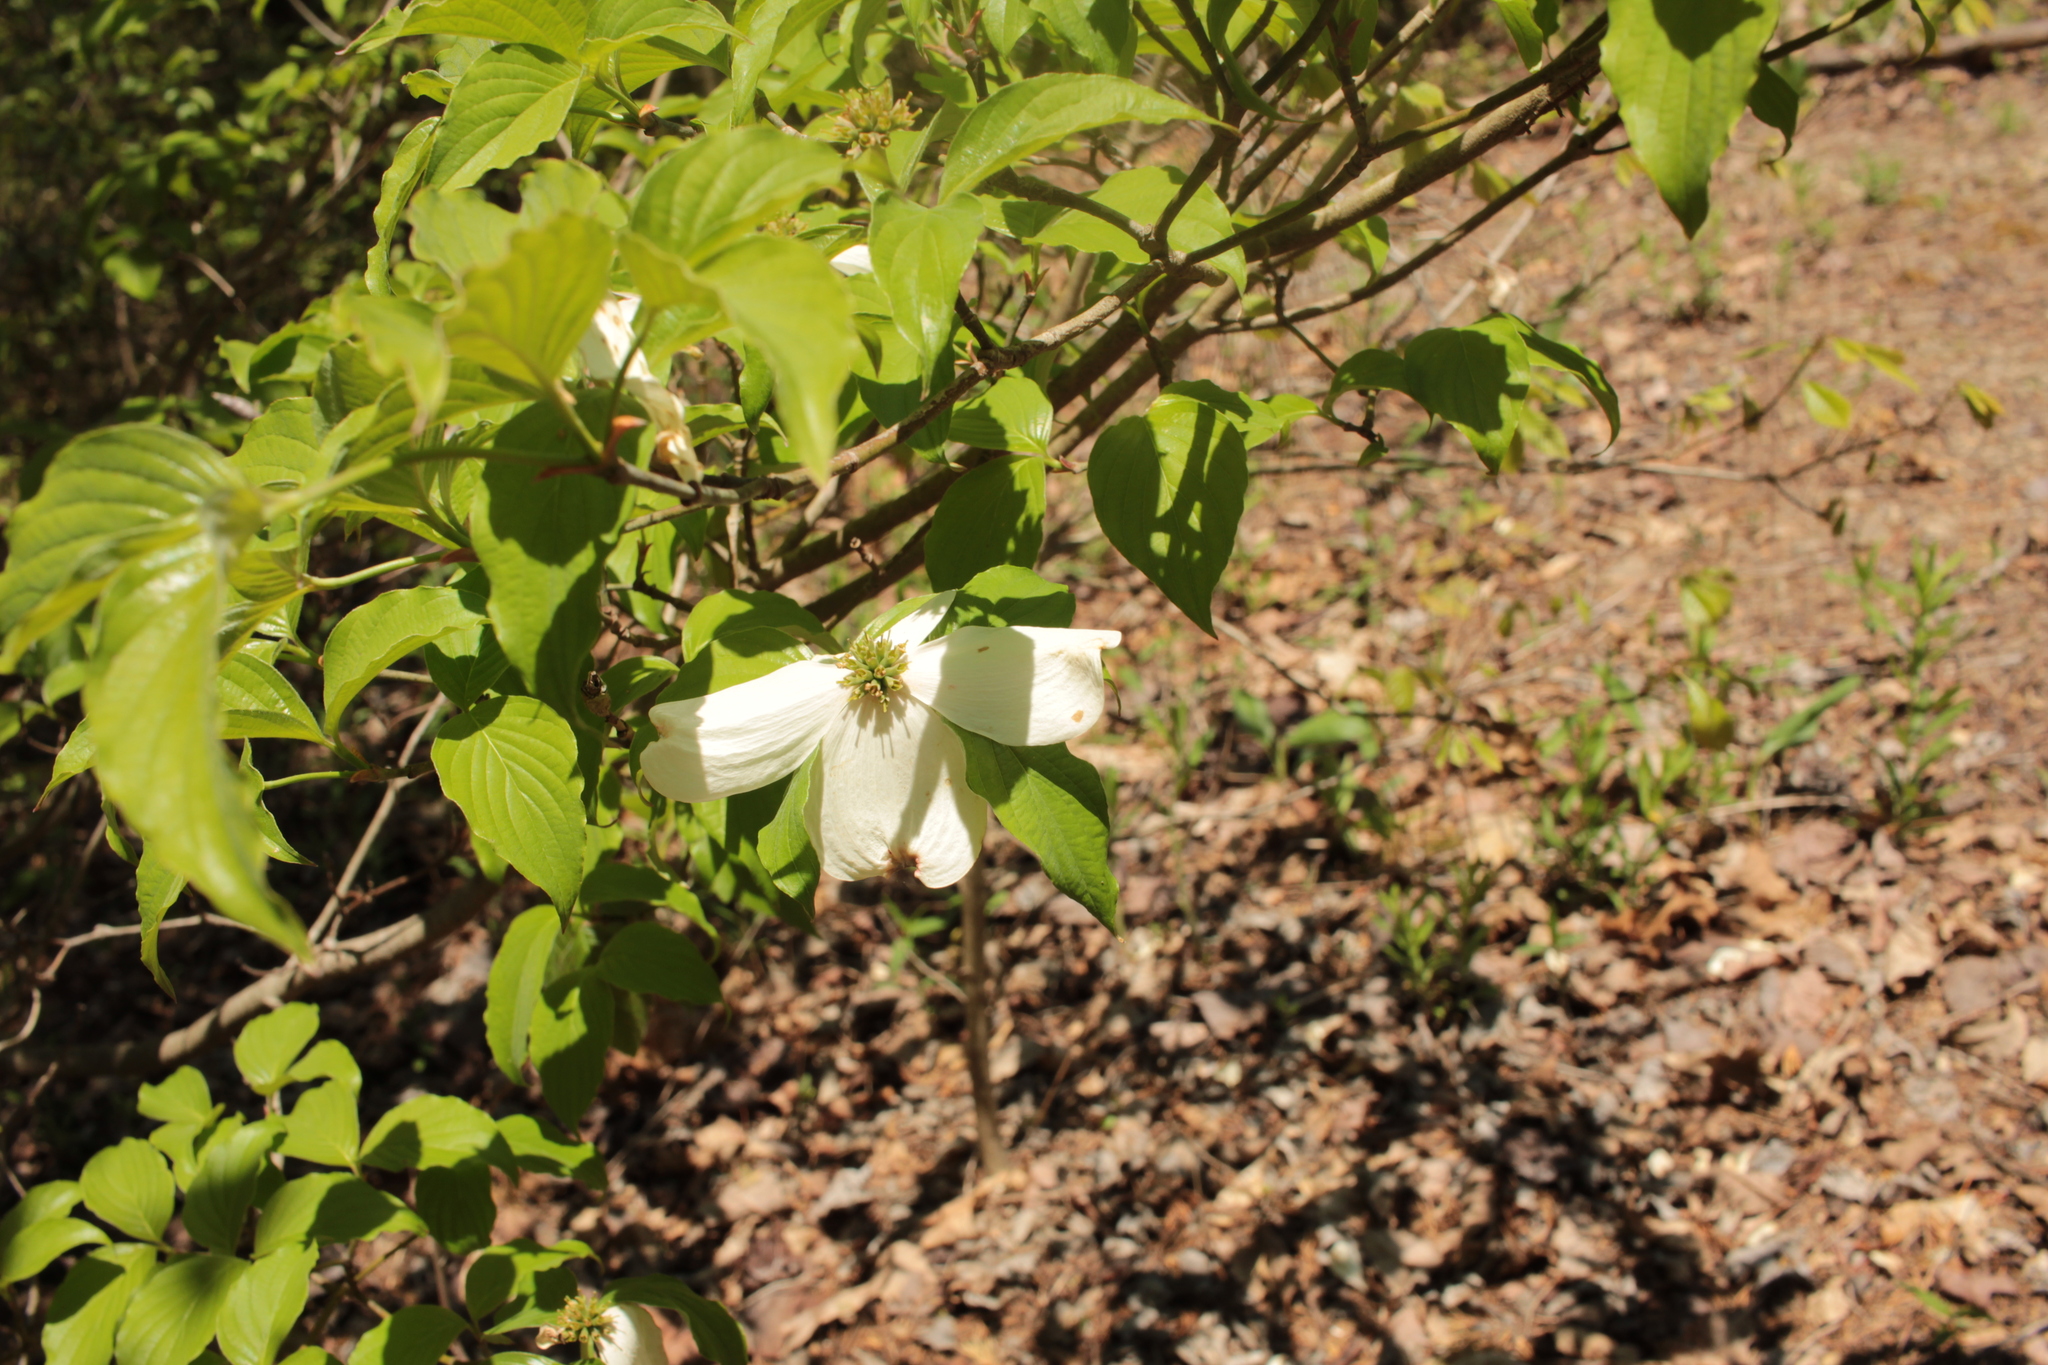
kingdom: Plantae
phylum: Tracheophyta
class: Magnoliopsida
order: Cornales
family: Cornaceae
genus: Cornus
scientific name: Cornus florida
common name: Flowering dogwood
